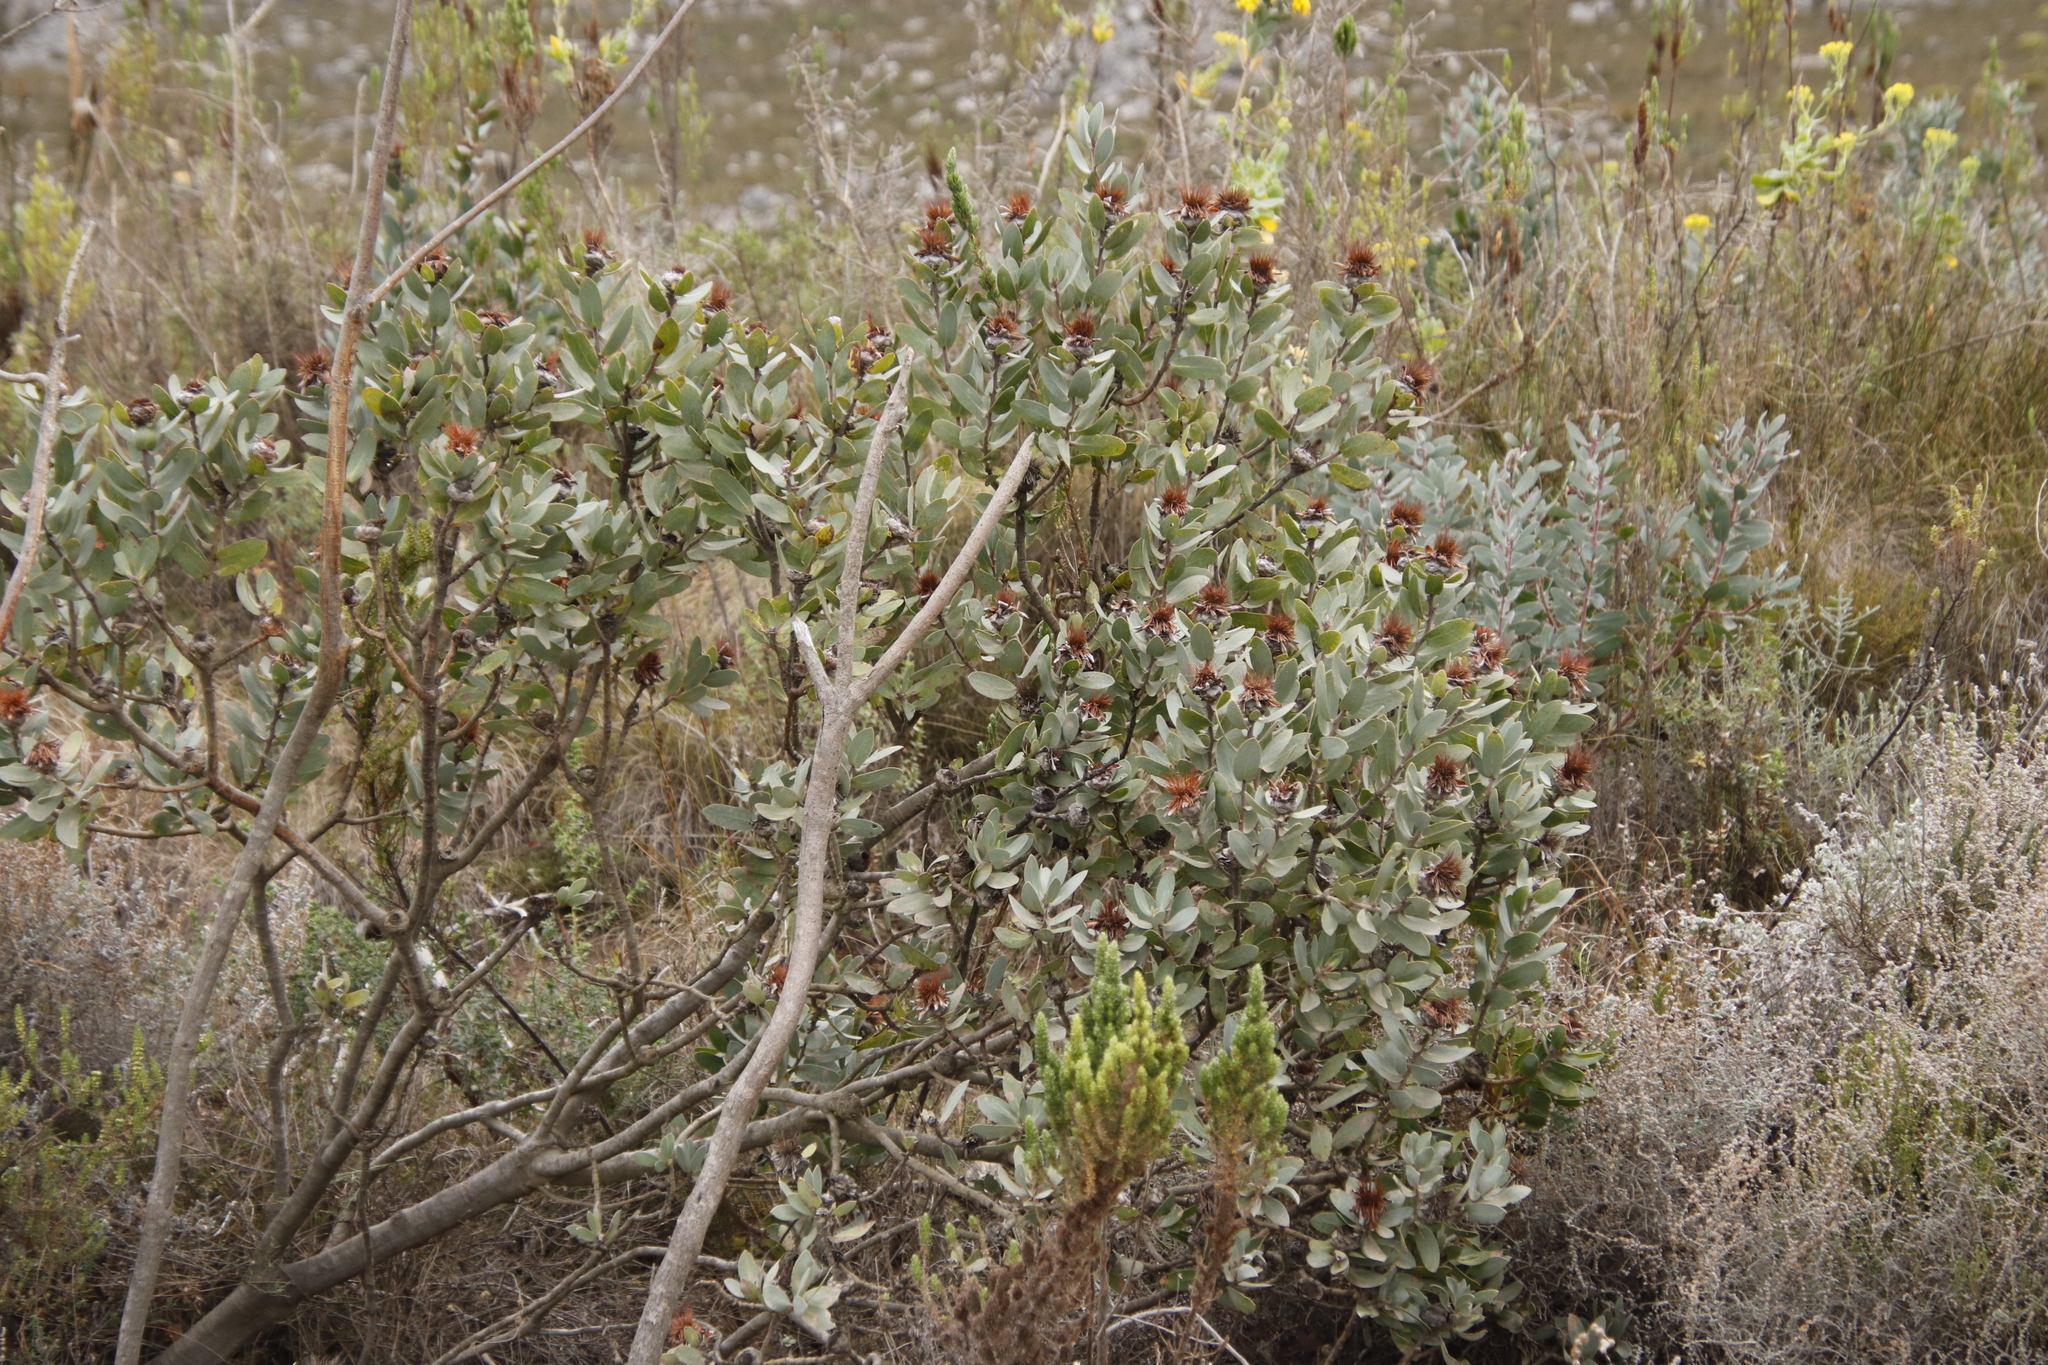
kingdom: Plantae
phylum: Tracheophyta
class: Magnoliopsida
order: Proteales
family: Proteaceae
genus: Protea
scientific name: Protea punctata
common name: Water sugarbush
